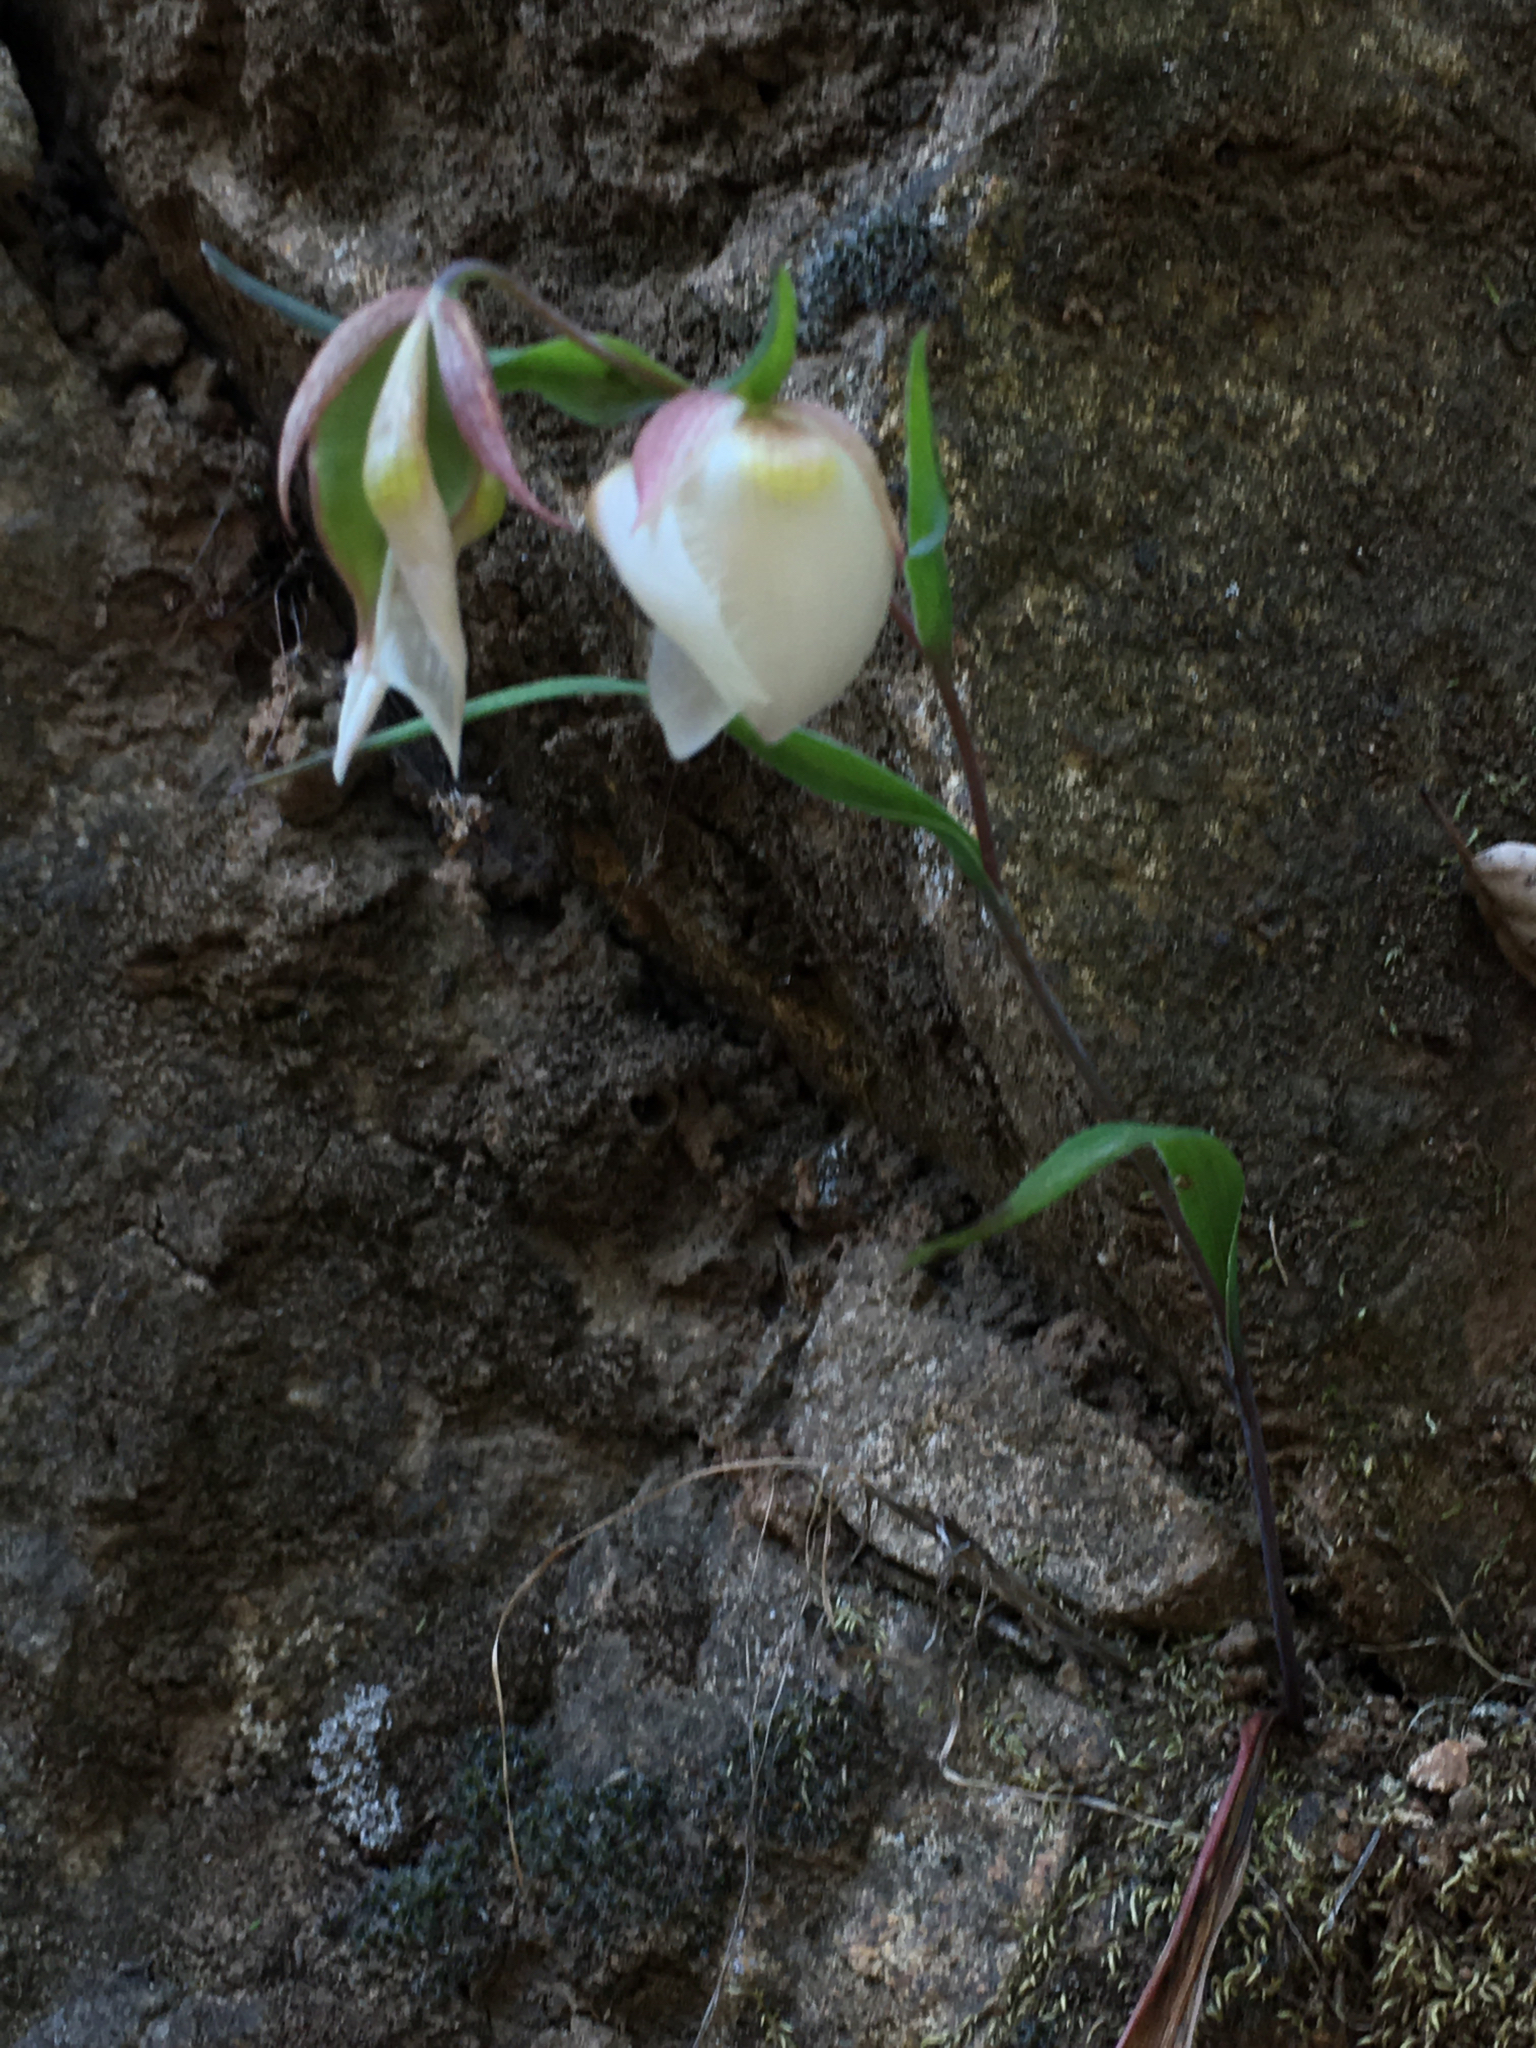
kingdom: Plantae
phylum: Tracheophyta
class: Liliopsida
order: Liliales
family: Liliaceae
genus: Calochortus
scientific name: Calochortus albus
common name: Fairy-lantern
